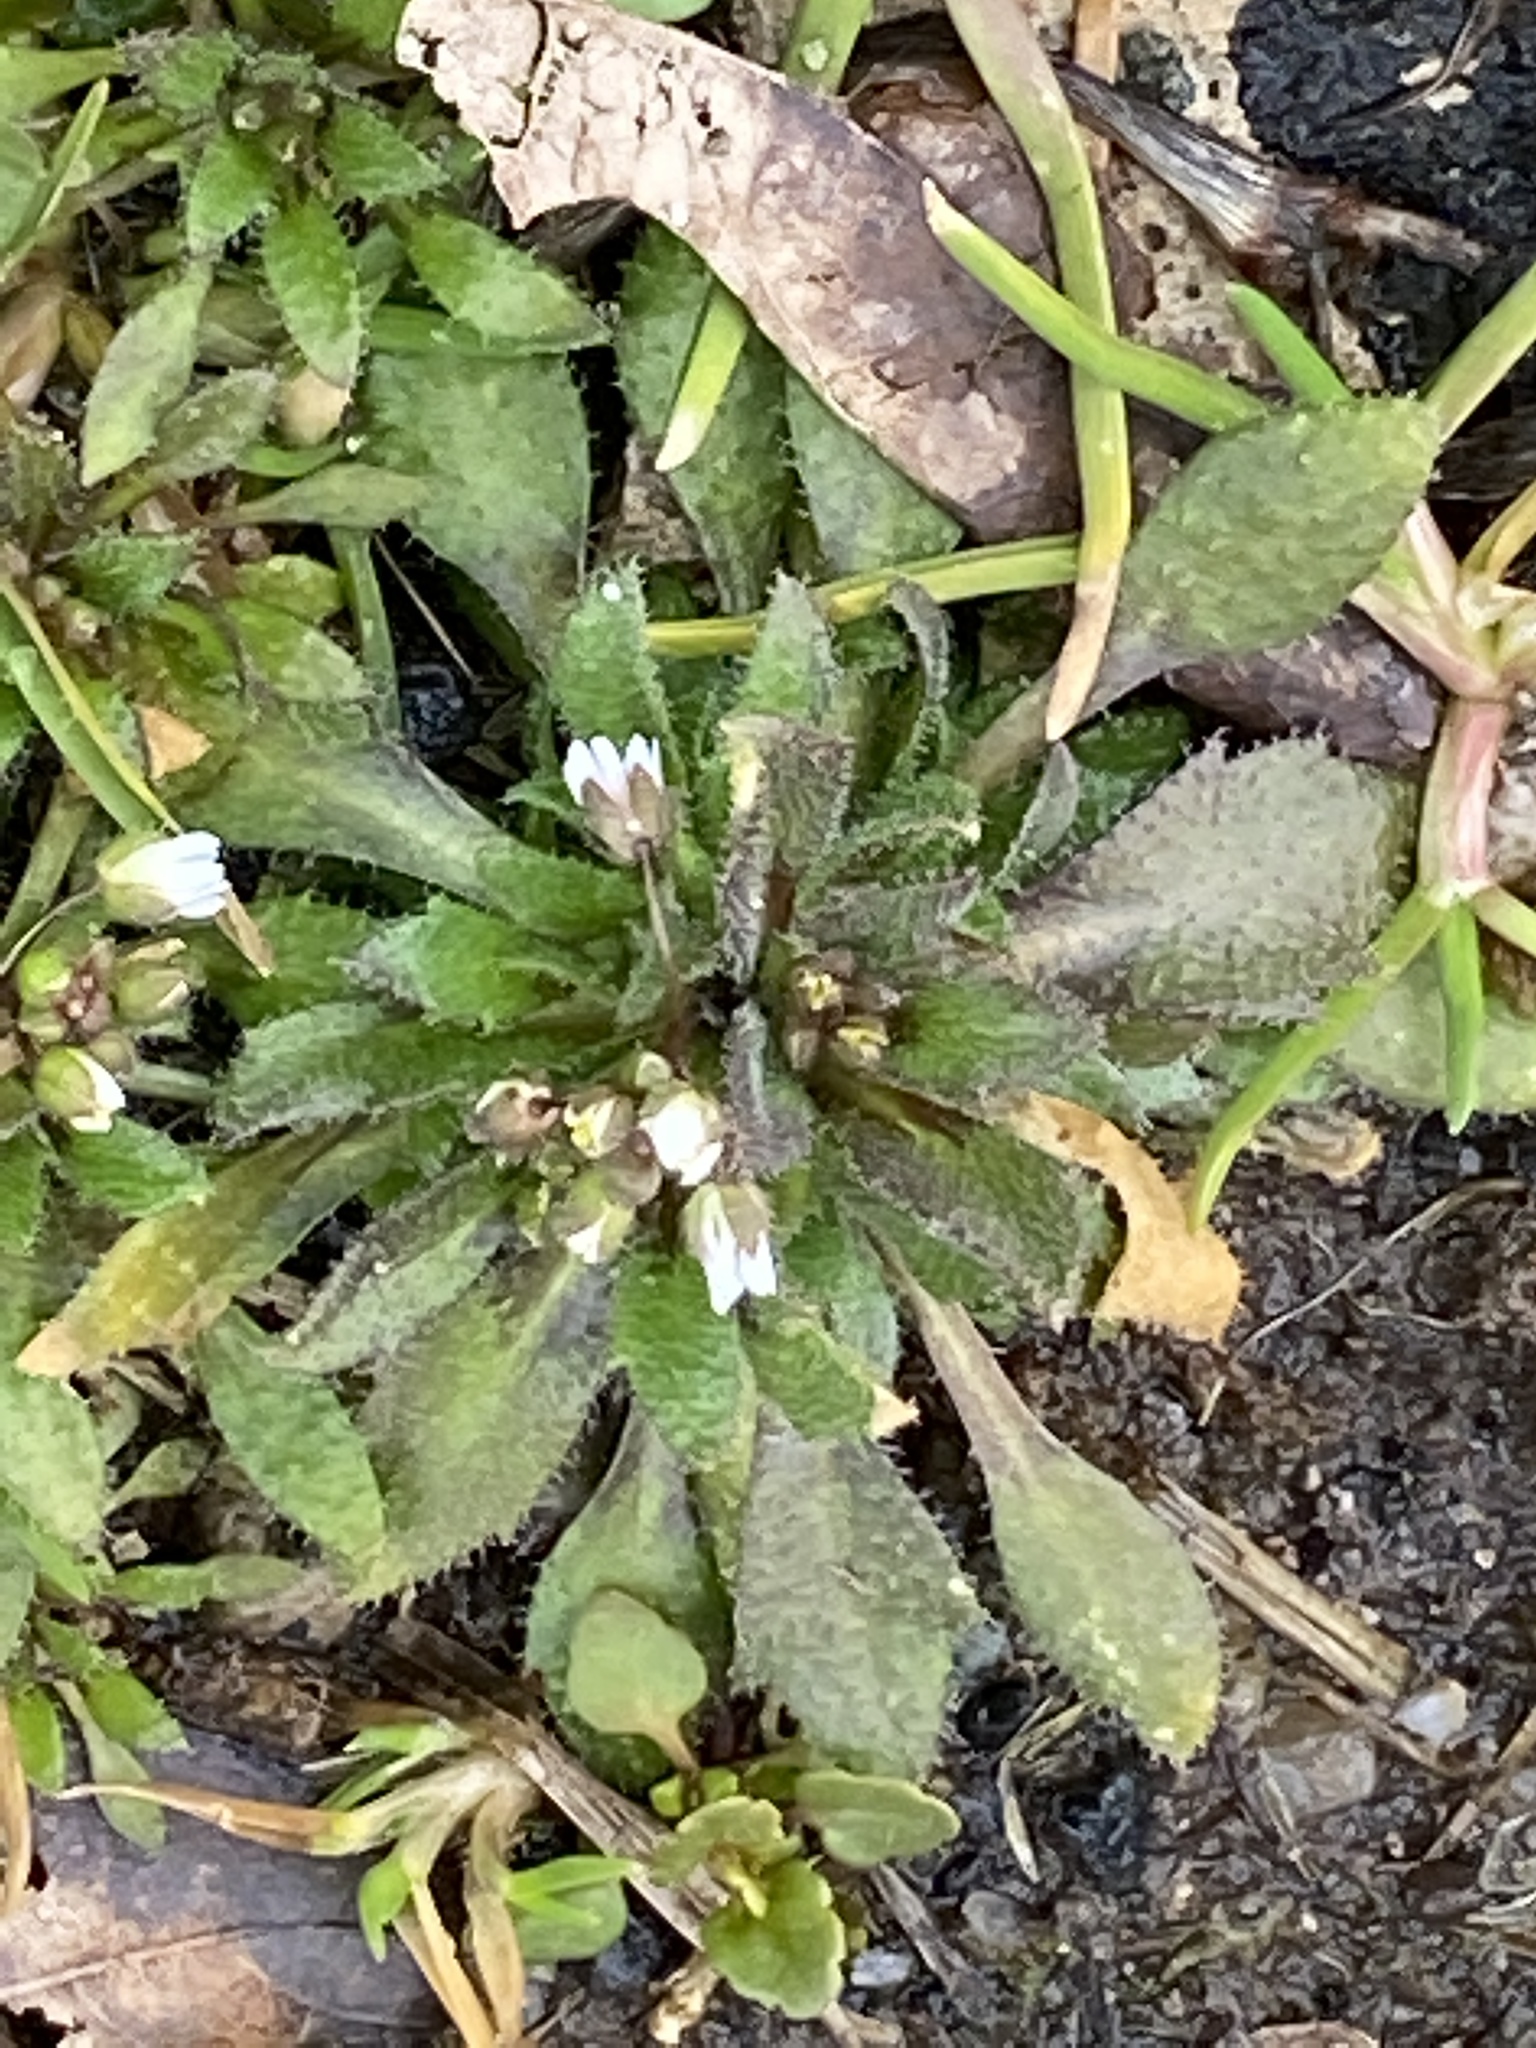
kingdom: Plantae
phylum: Tracheophyta
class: Magnoliopsida
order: Brassicales
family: Brassicaceae
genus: Draba
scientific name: Draba verna
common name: Spring draba
